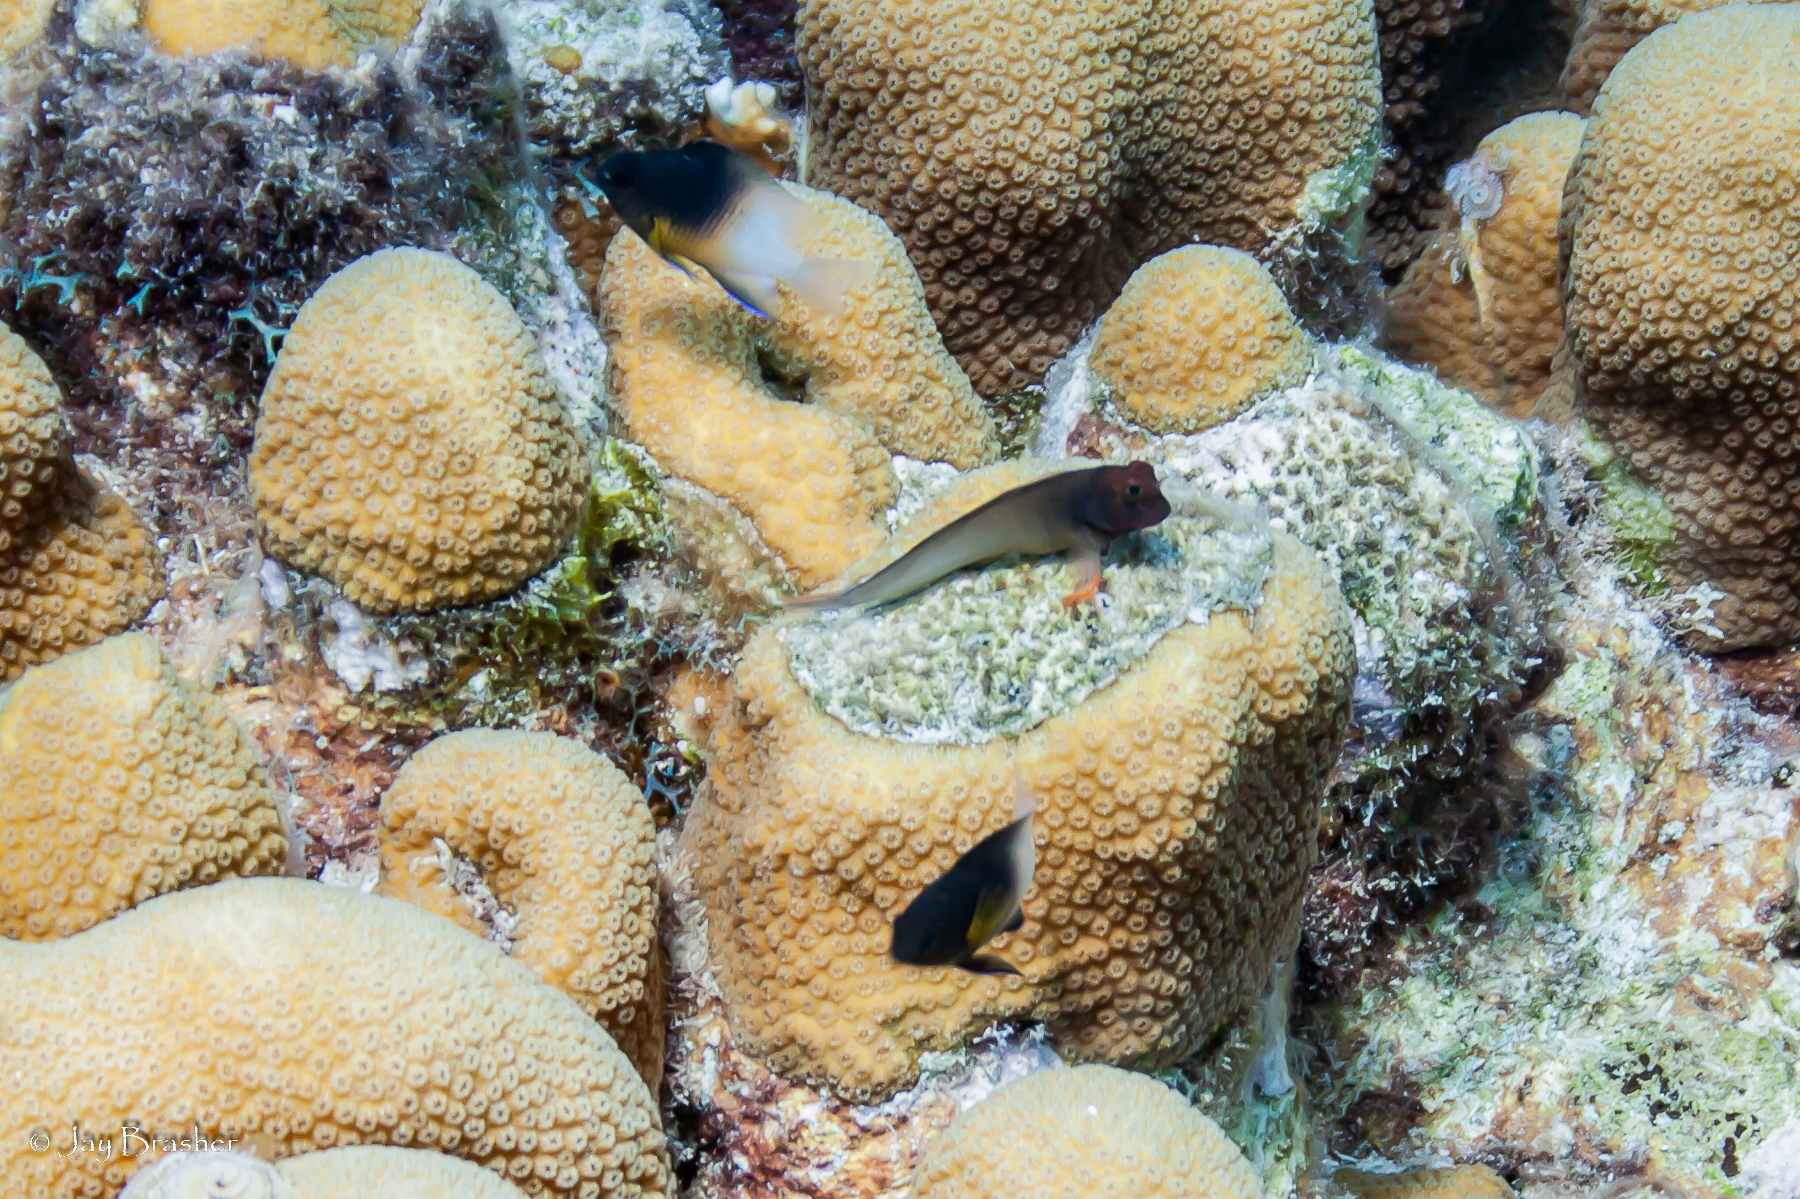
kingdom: Animalia
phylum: Chordata
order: Perciformes
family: Pomacentridae
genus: Stegastes
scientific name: Stegastes partitus
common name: Bicolor damselfish
